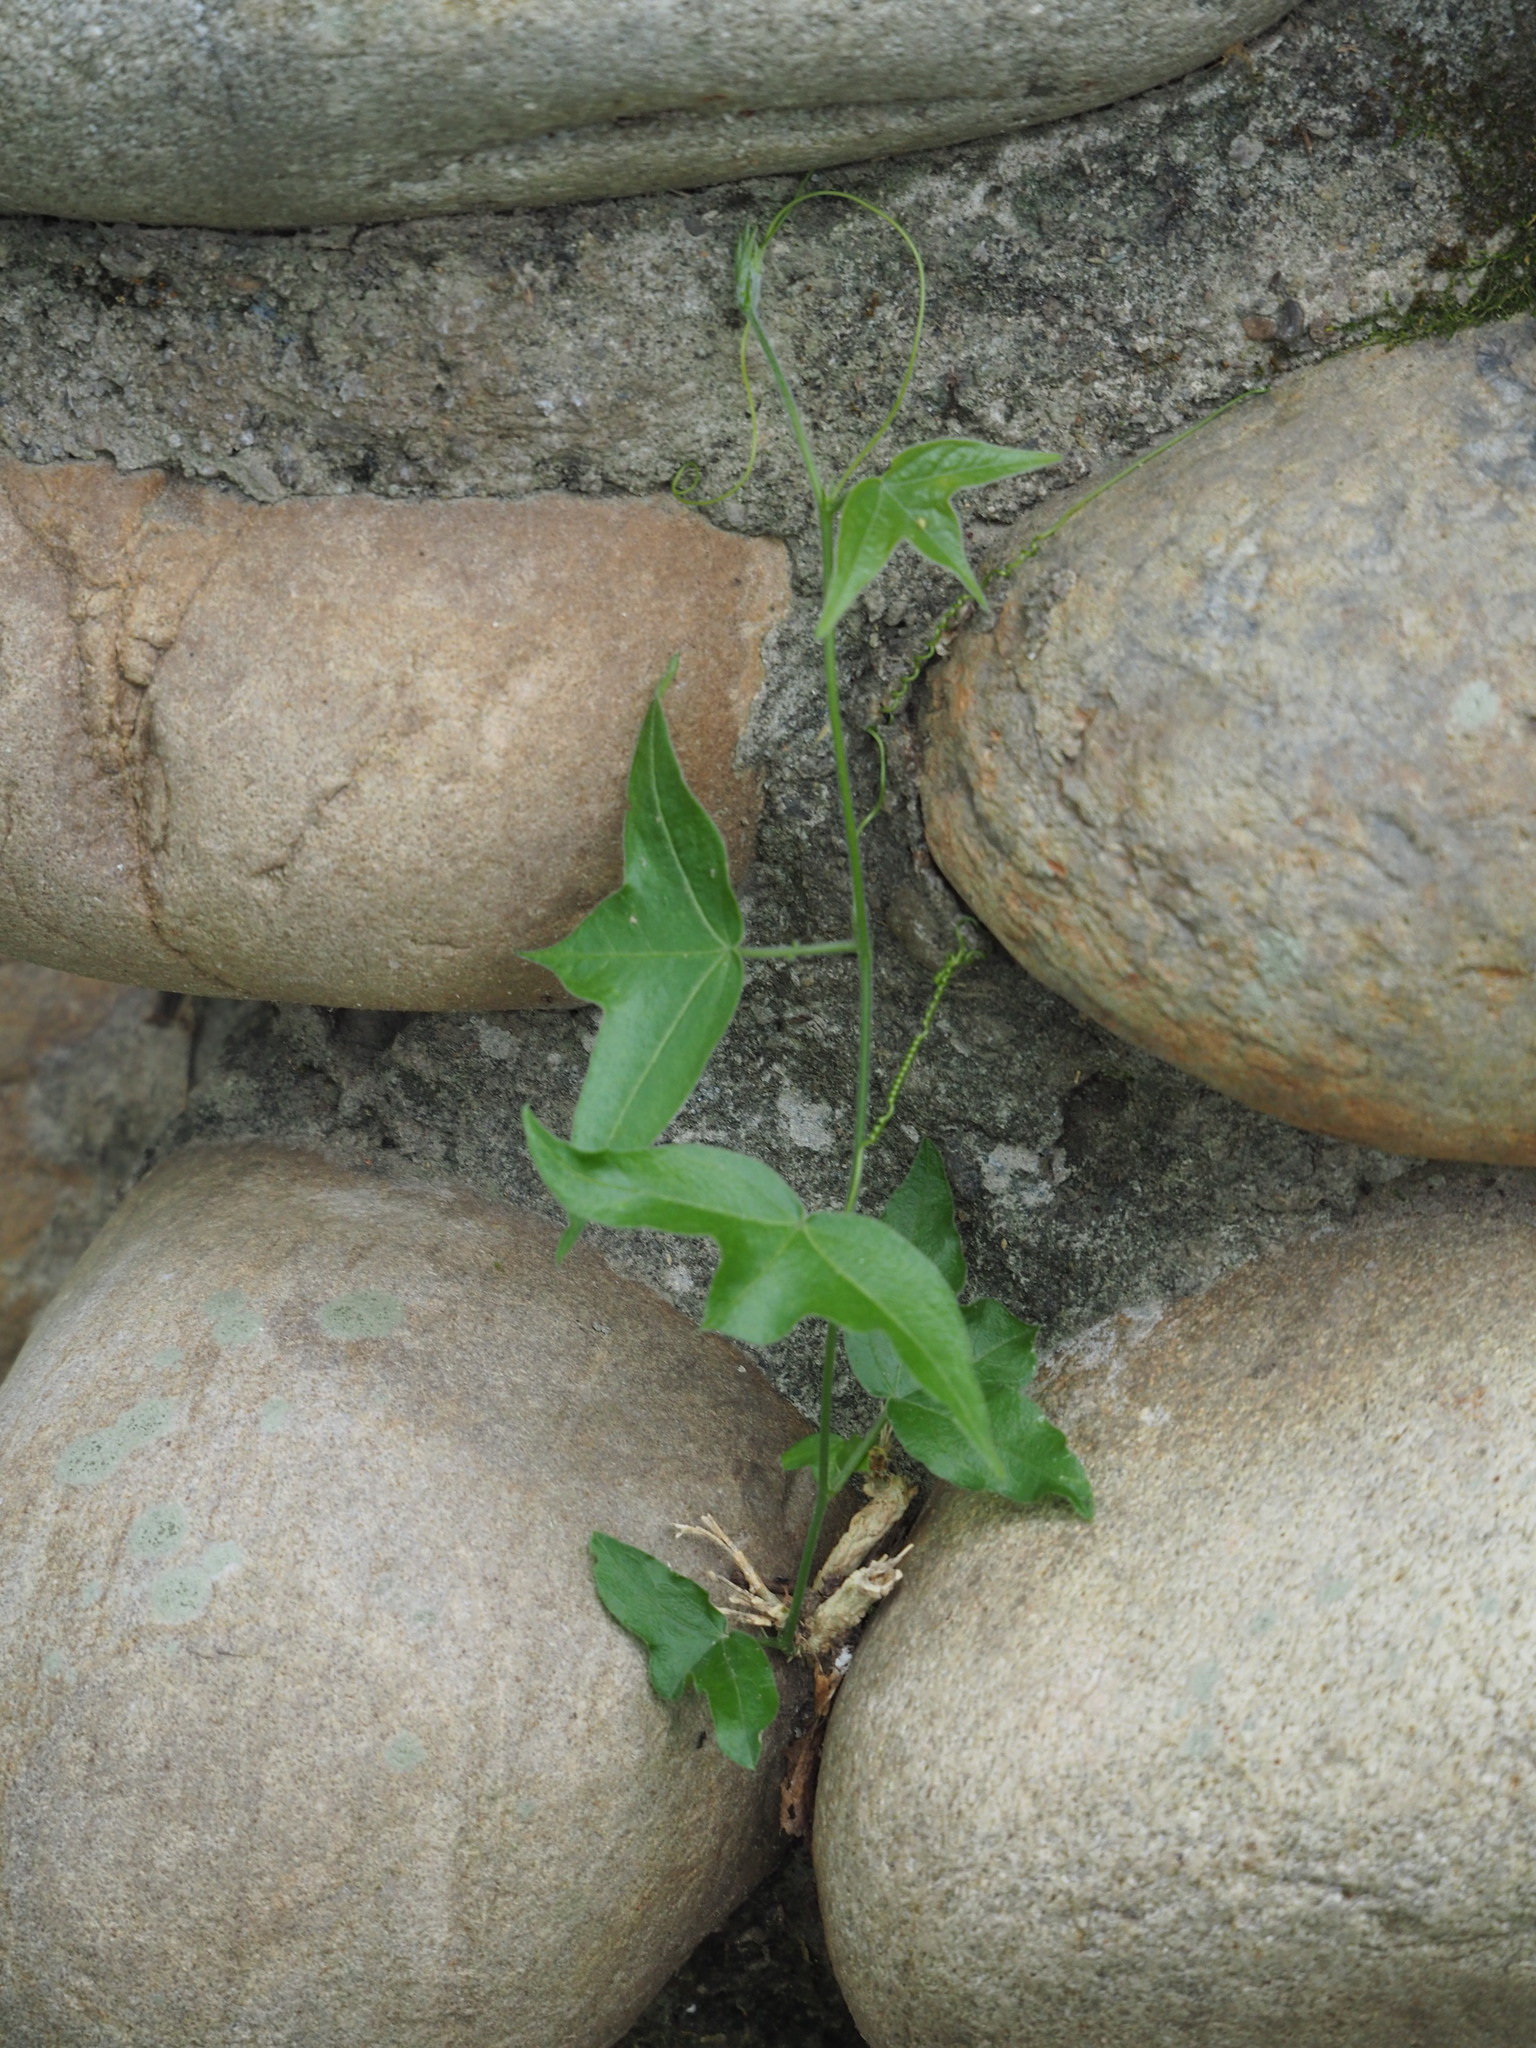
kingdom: Plantae
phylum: Tracheophyta
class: Magnoliopsida
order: Malpighiales
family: Passifloraceae
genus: Passiflora
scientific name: Passiflora suberosa
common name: Wild passionfruit
